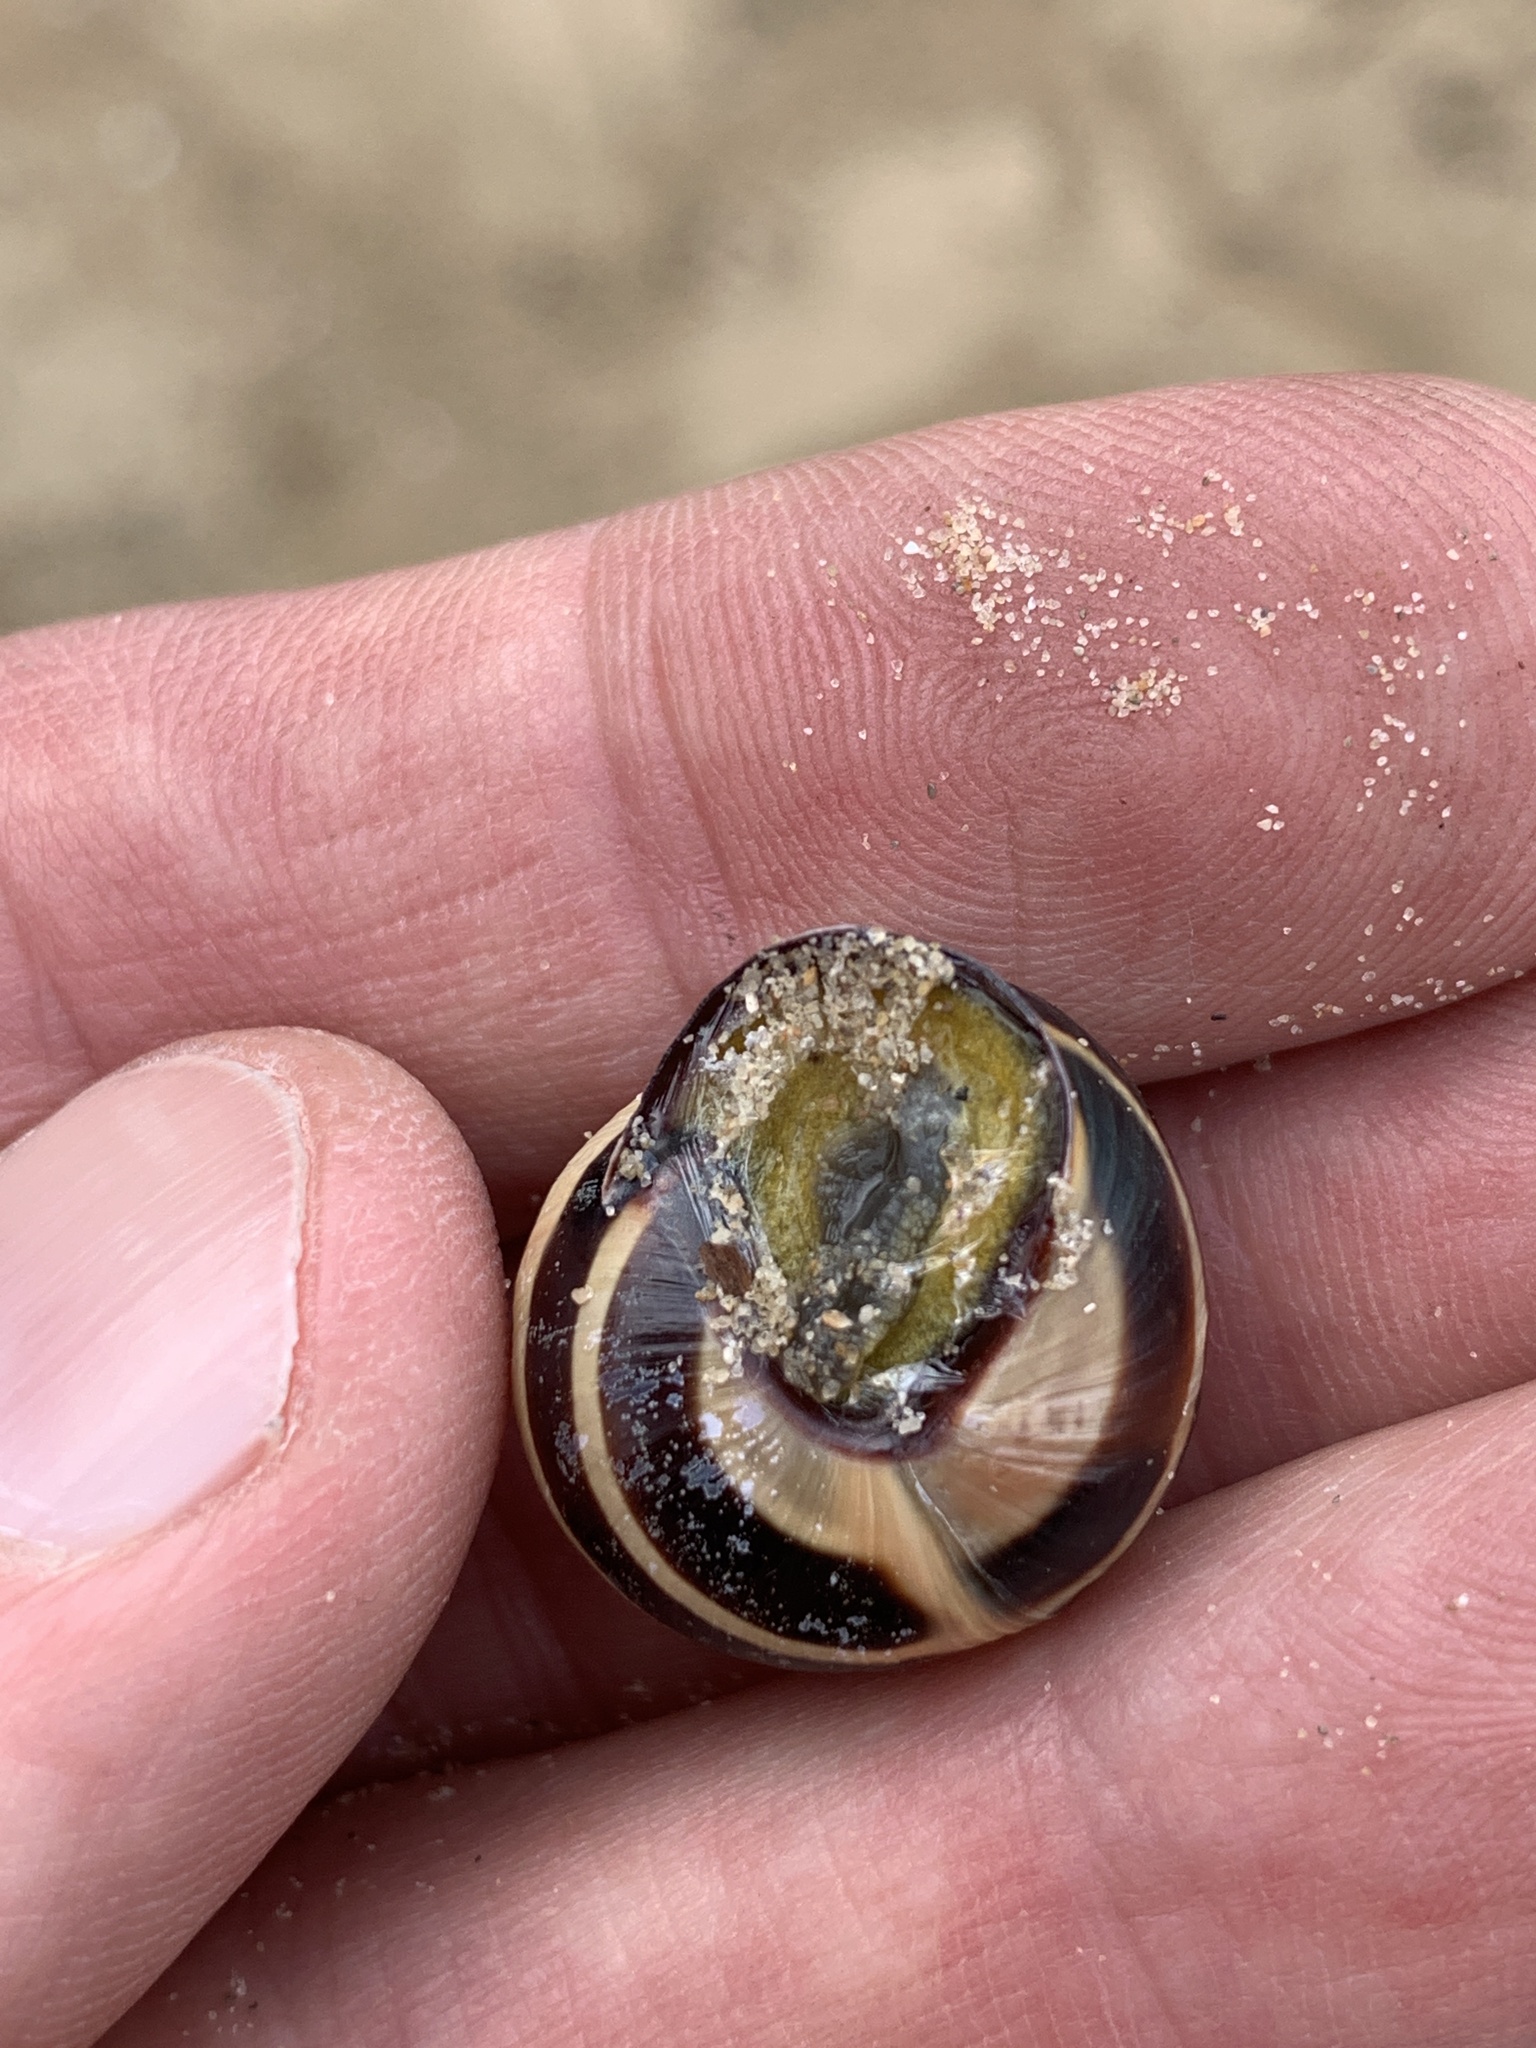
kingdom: Animalia
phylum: Mollusca
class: Gastropoda
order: Stylommatophora
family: Helicidae
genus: Cepaea
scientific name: Cepaea nemoralis
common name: Grovesnail
